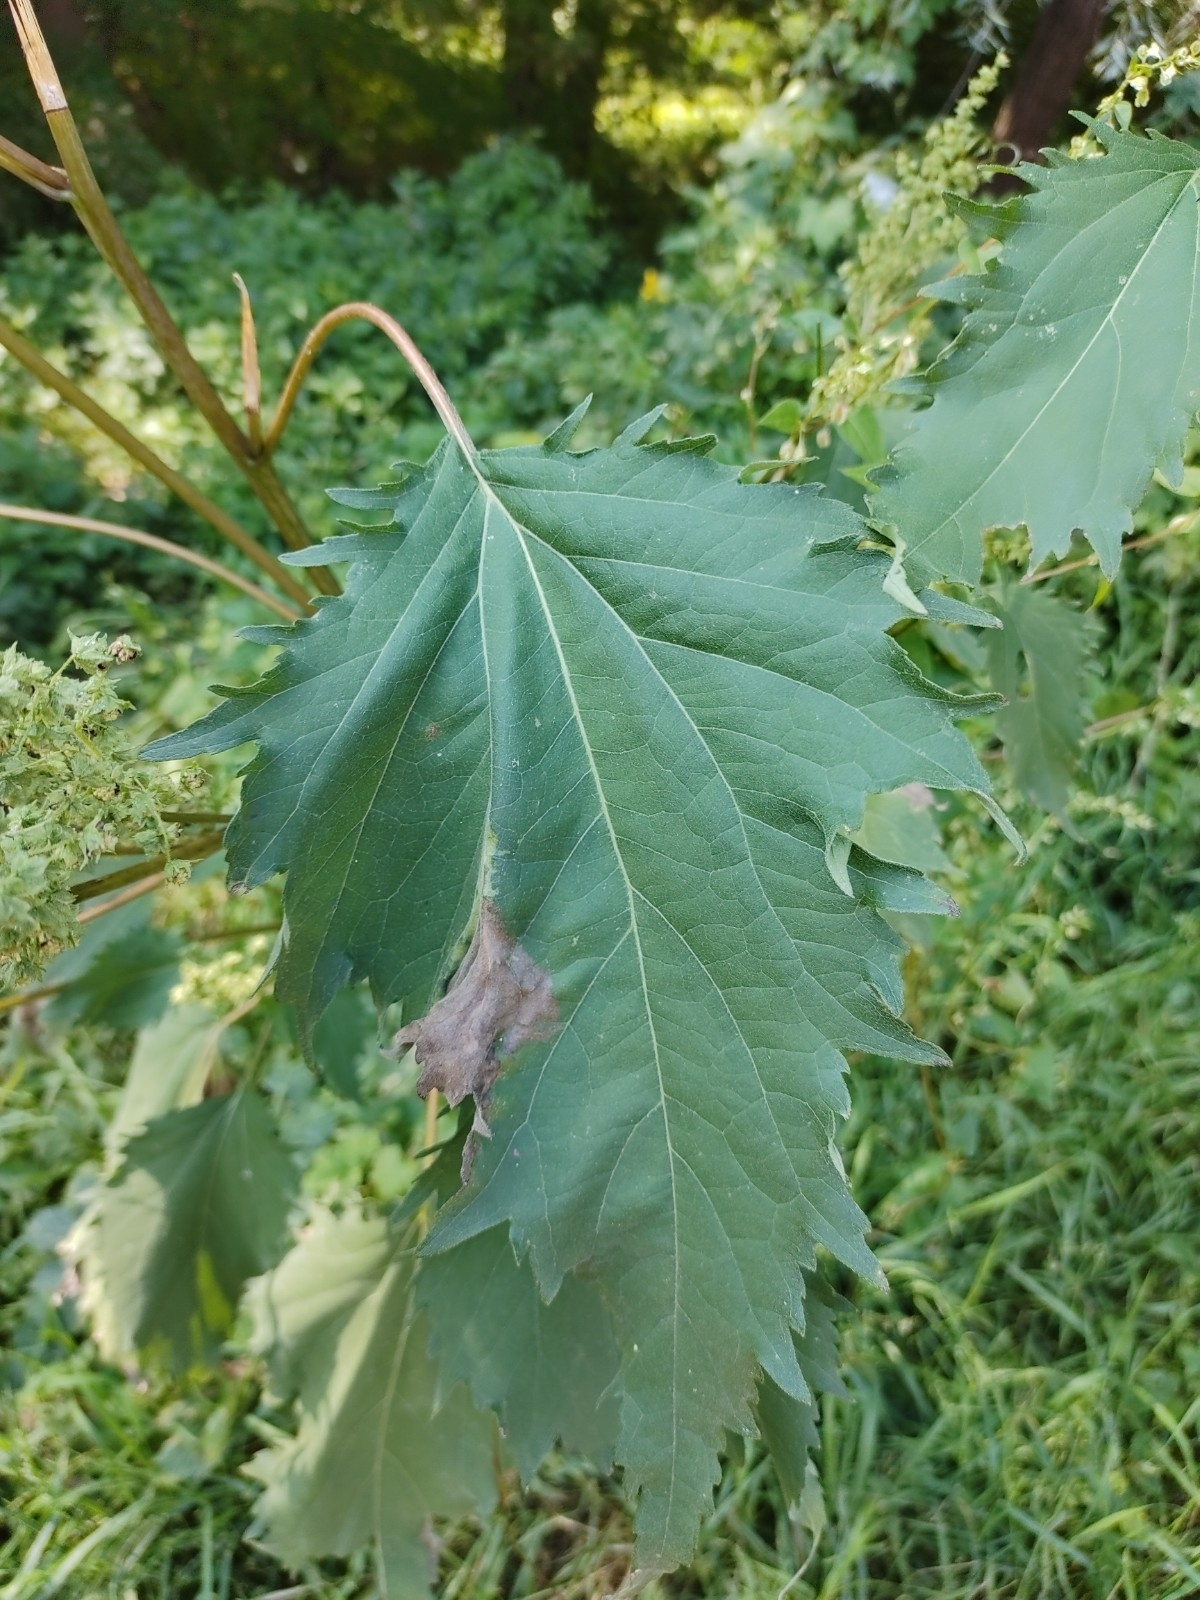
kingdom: Plantae
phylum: Tracheophyta
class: Magnoliopsida
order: Asterales
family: Asteraceae
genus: Cyclachaena
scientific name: Cyclachaena xanthiifolia
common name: Giant sumpweed
